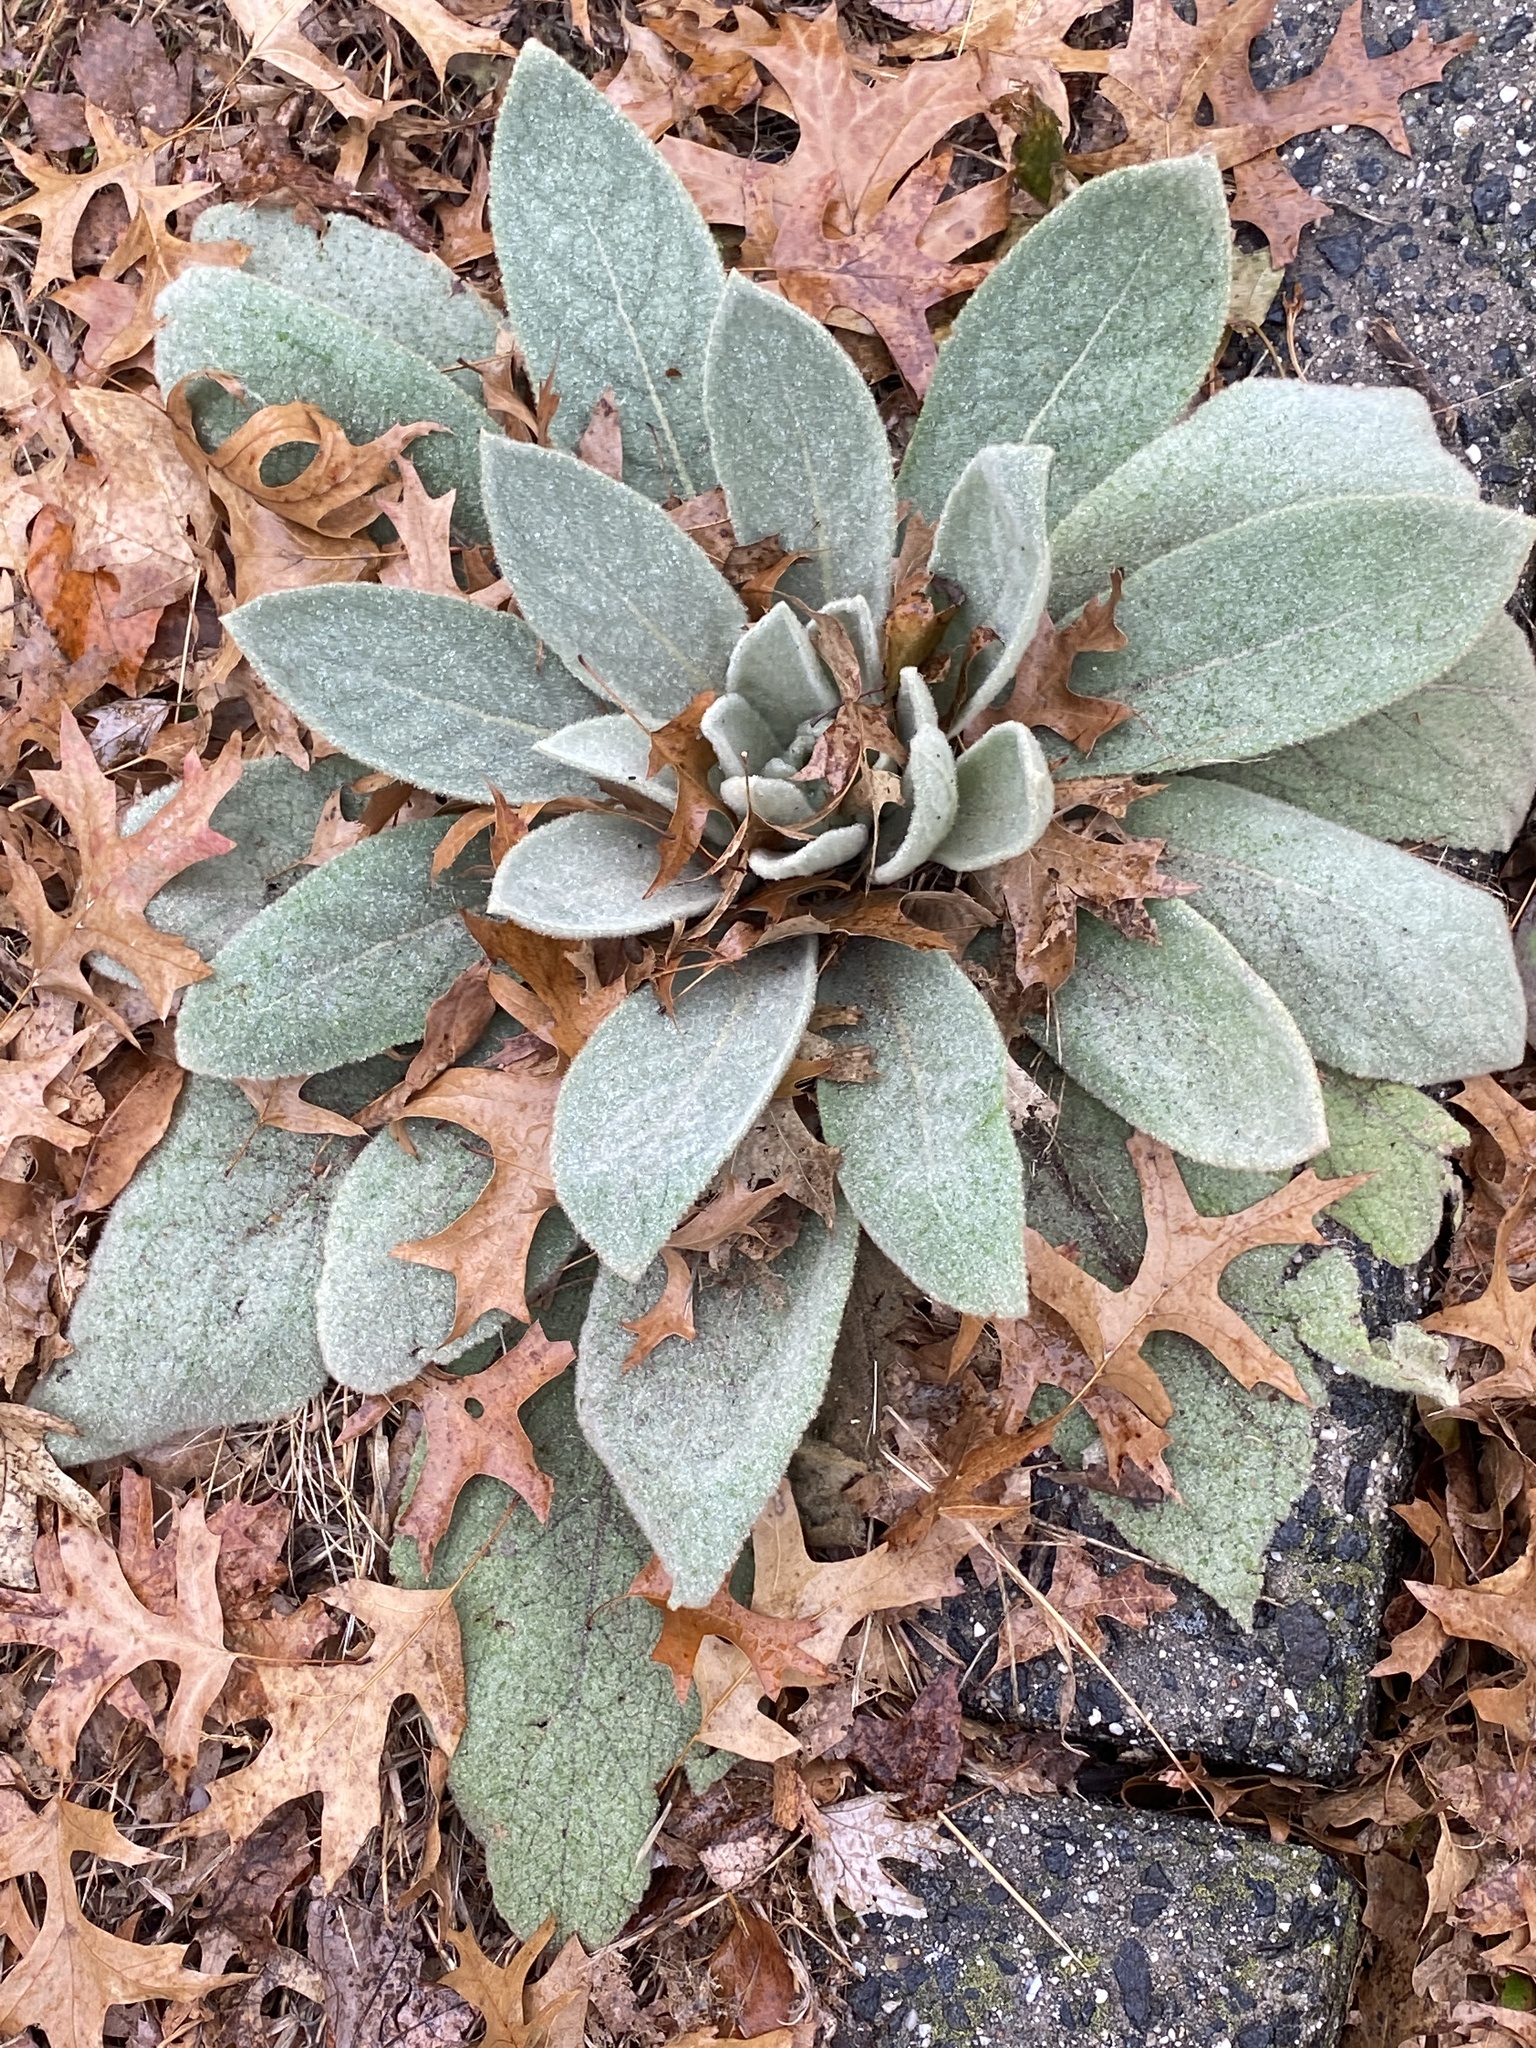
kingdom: Plantae
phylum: Tracheophyta
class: Magnoliopsida
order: Lamiales
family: Scrophulariaceae
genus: Verbascum
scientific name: Verbascum thapsus
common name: Common mullein
